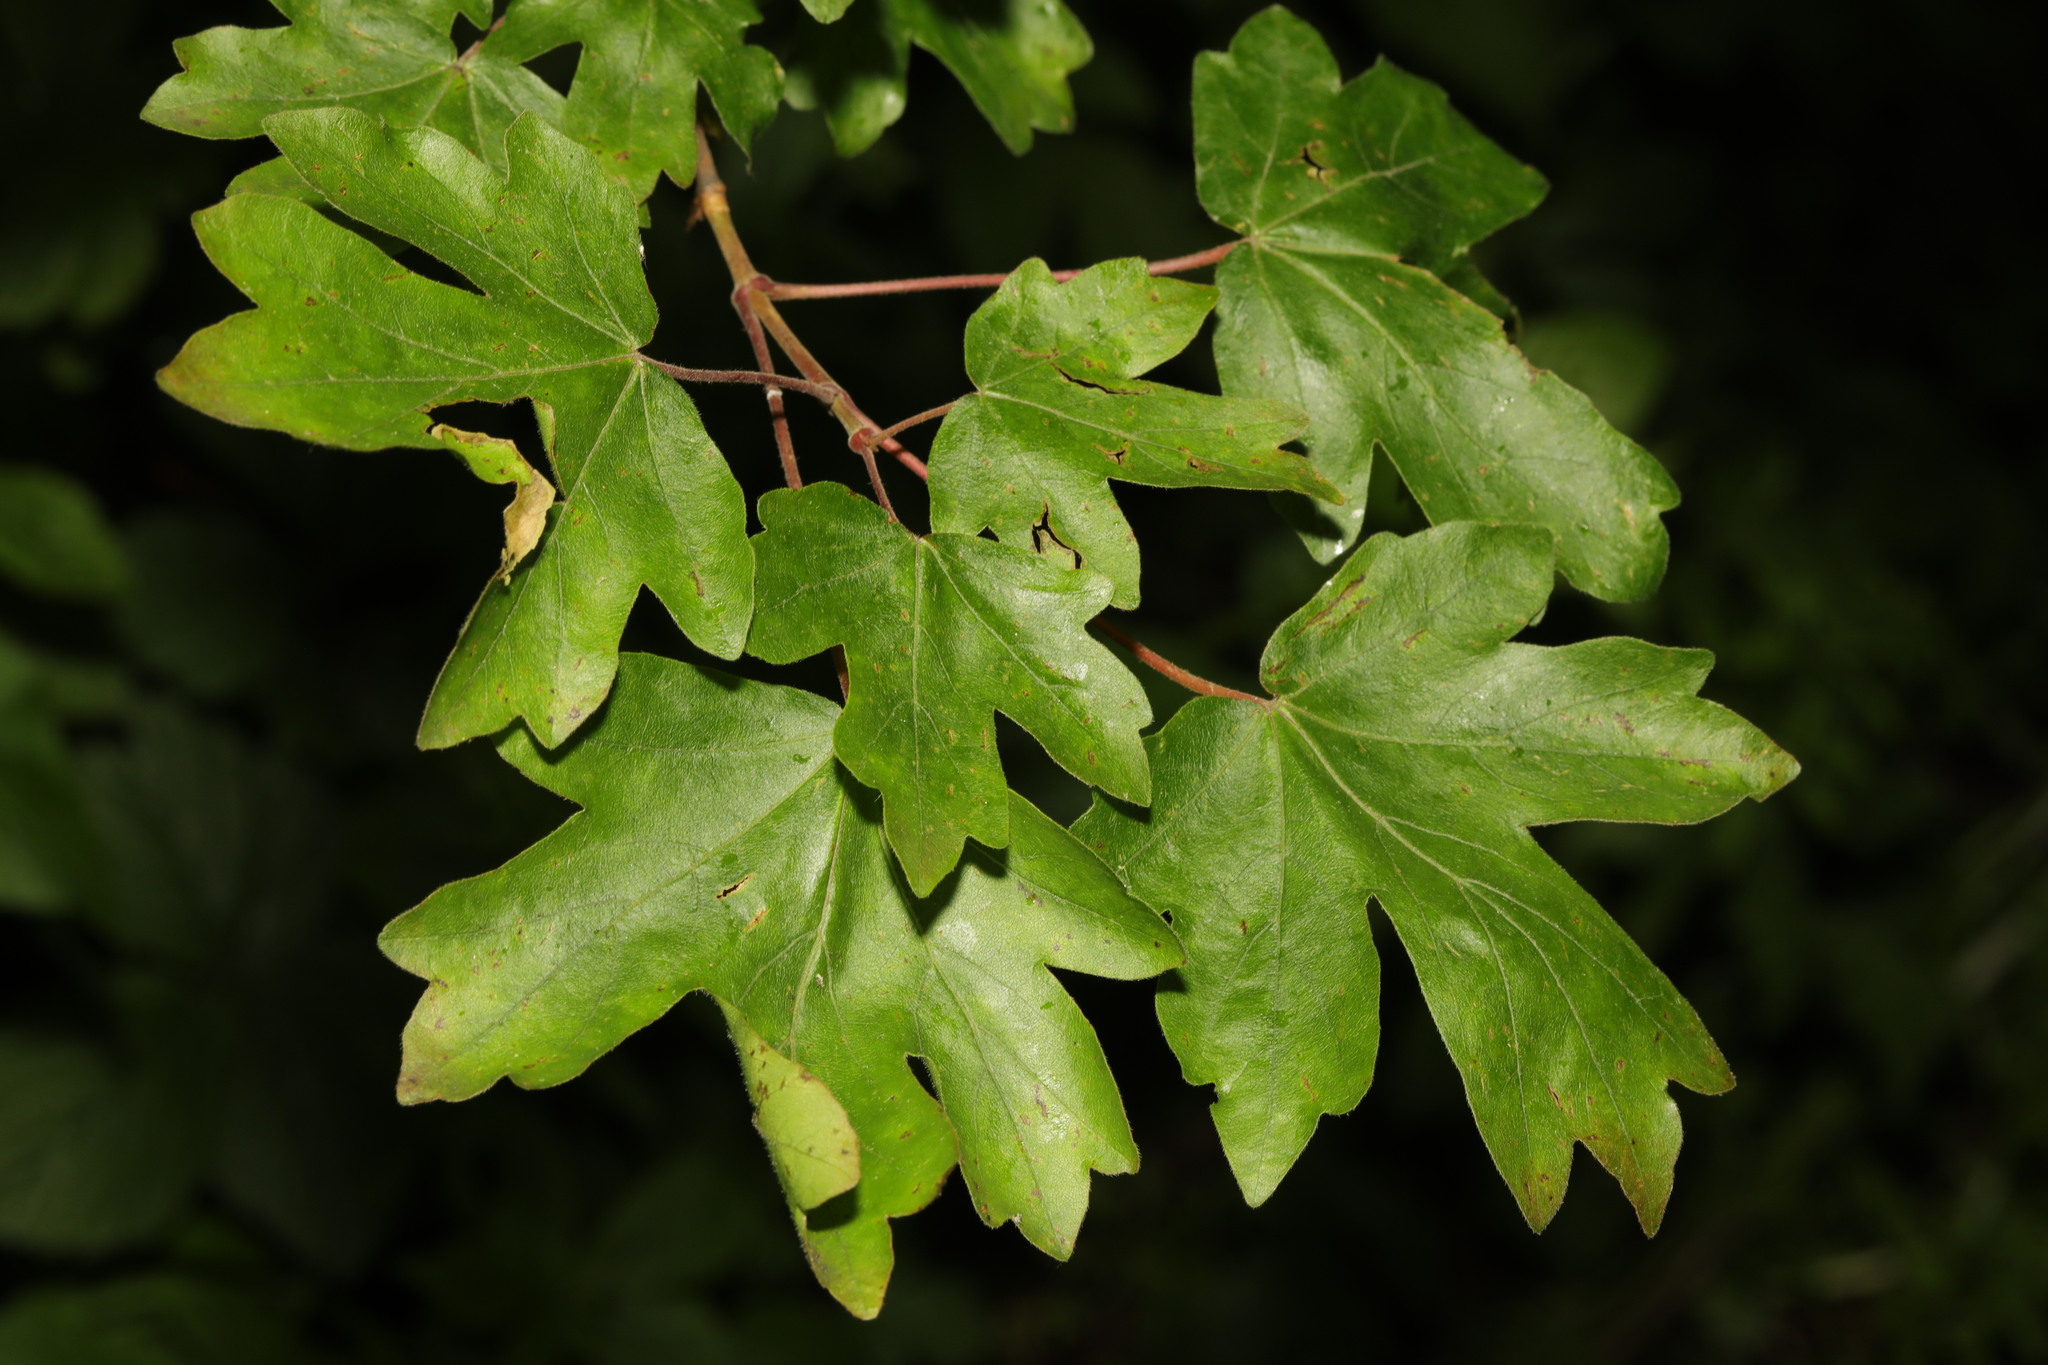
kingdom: Plantae
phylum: Tracheophyta
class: Magnoliopsida
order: Sapindales
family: Sapindaceae
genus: Acer
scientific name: Acer campestre
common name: Field maple
